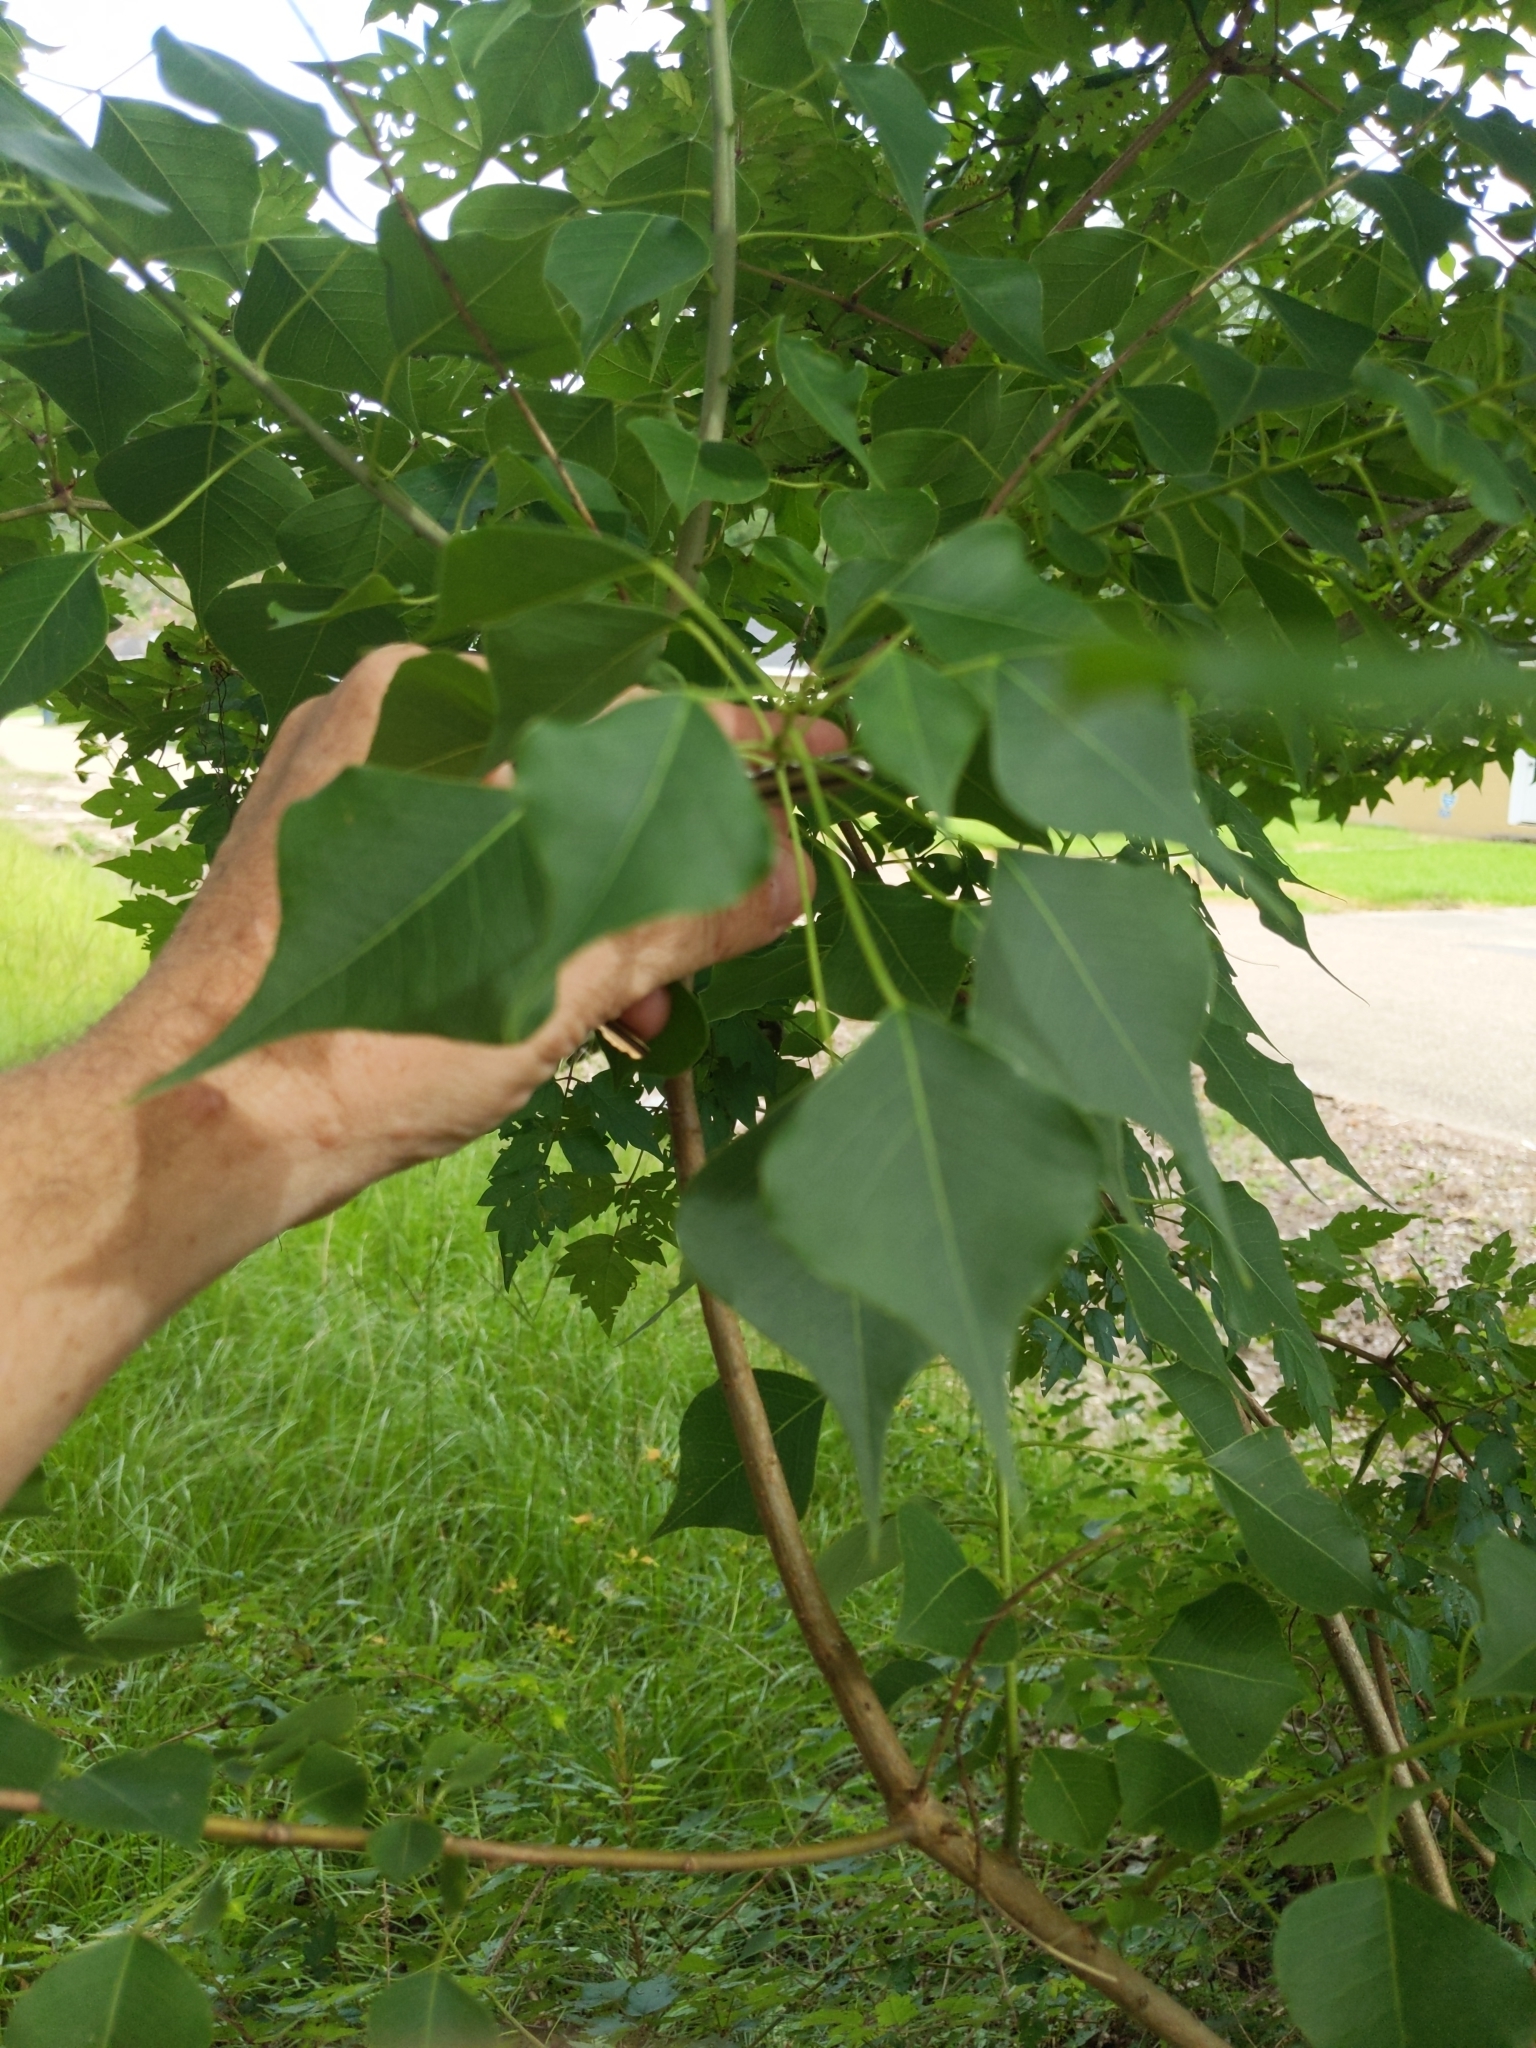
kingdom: Plantae
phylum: Tracheophyta
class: Magnoliopsida
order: Malpighiales
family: Euphorbiaceae
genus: Triadica
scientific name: Triadica sebifera
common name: Chinese tallow
